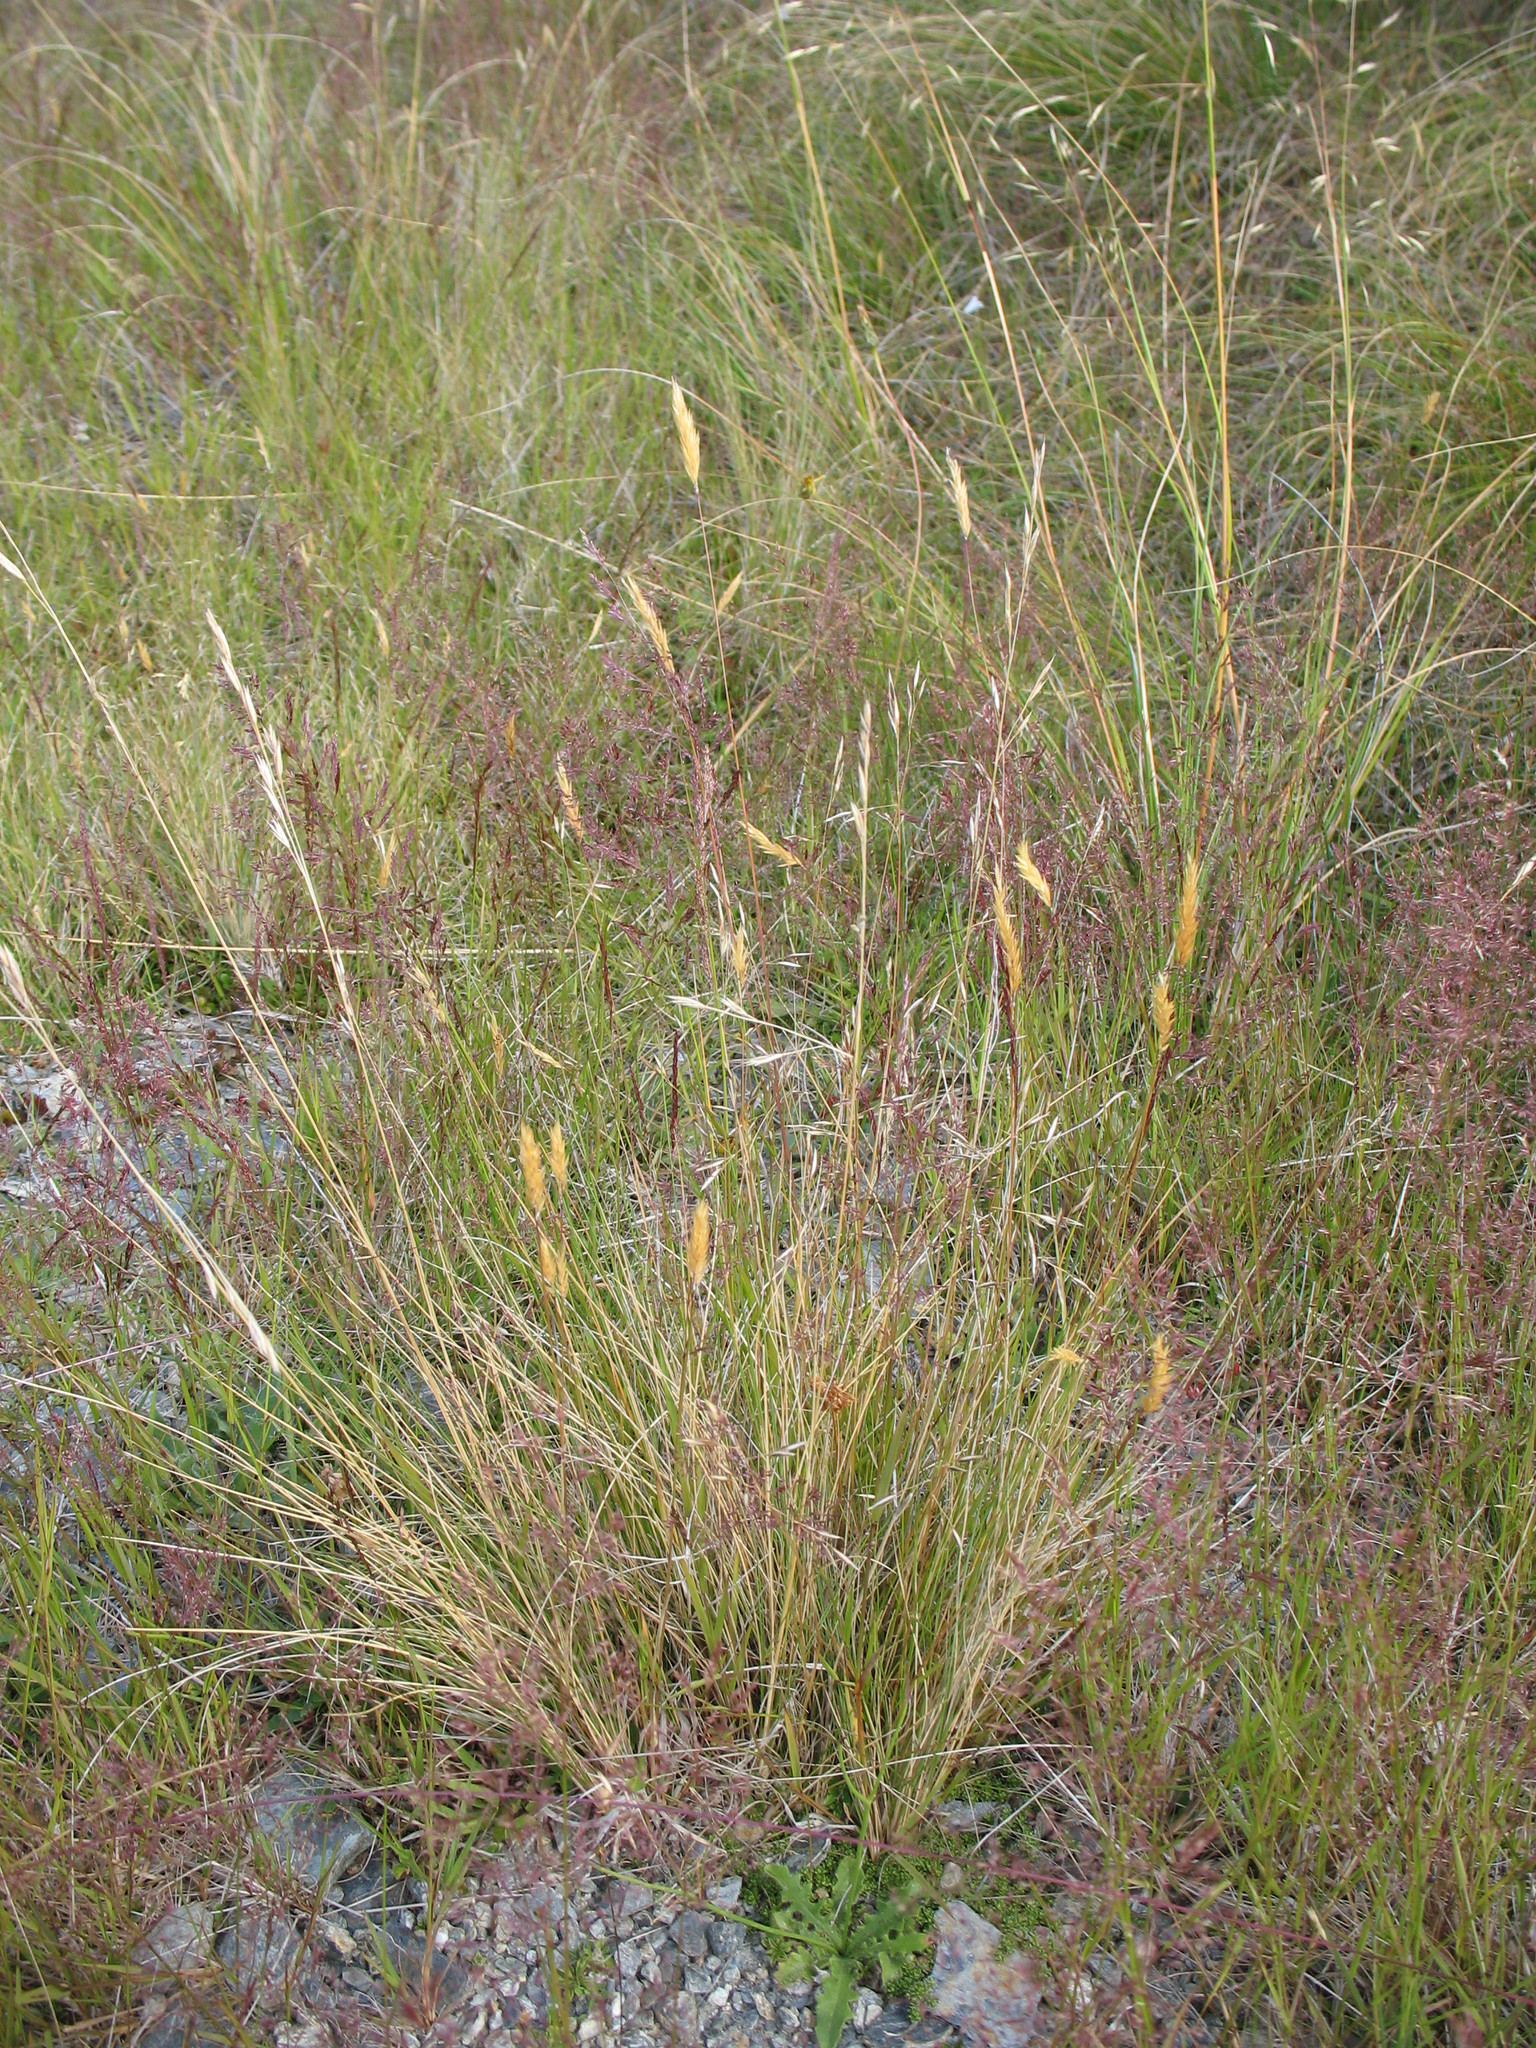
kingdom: Plantae
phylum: Tracheophyta
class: Liliopsida
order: Poales
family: Poaceae
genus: Rytidosperma
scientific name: Rytidosperma buchananii
